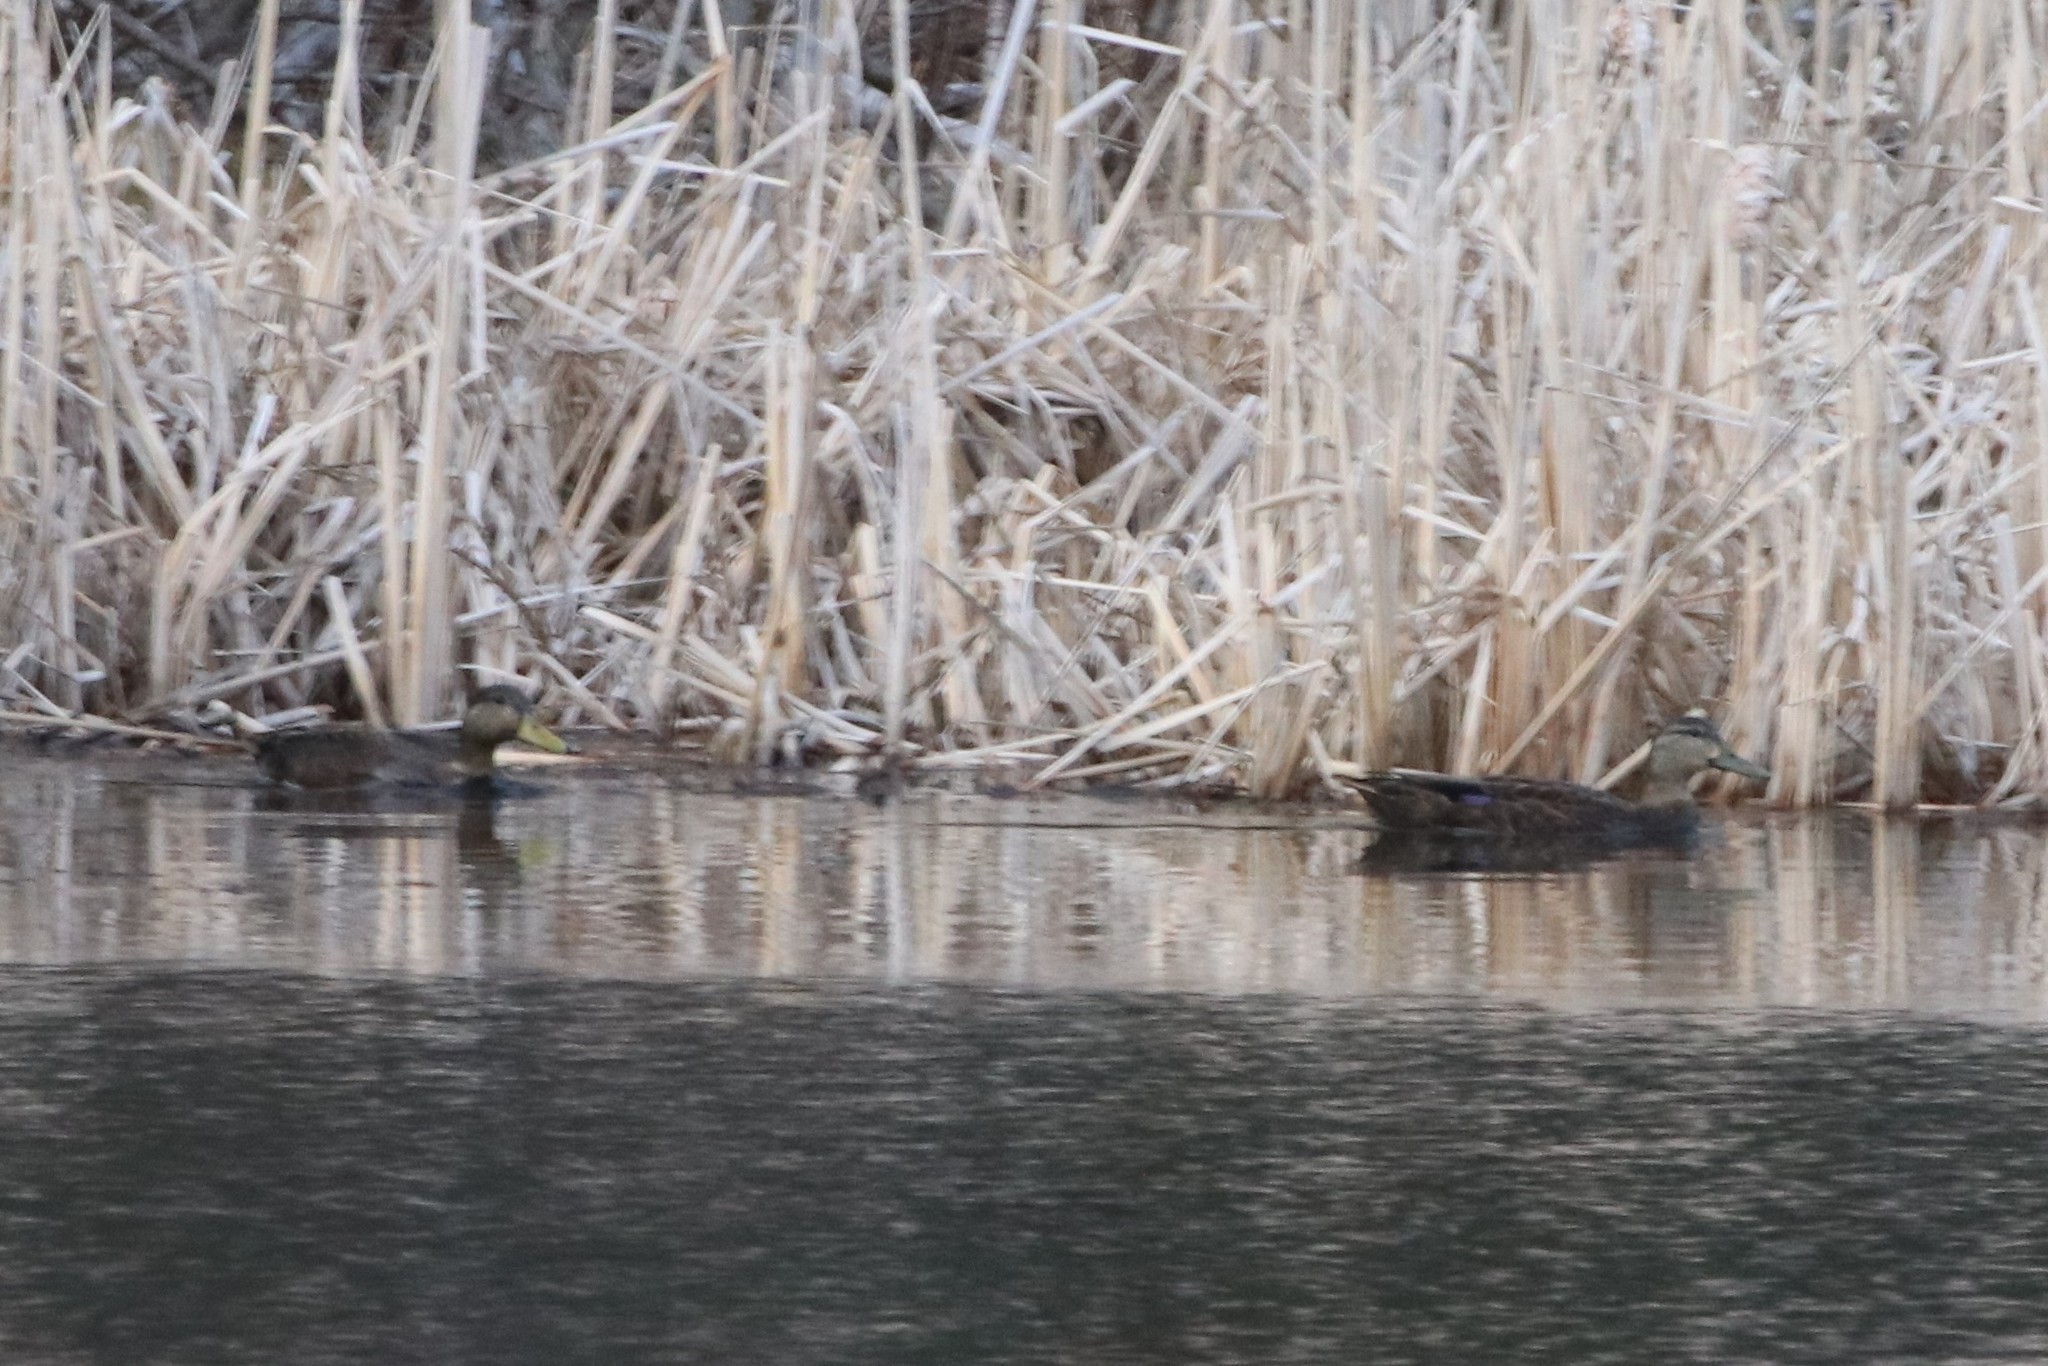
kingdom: Animalia
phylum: Chordata
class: Aves
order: Anseriformes
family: Anatidae
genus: Anas
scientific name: Anas rubripes
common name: American black duck
